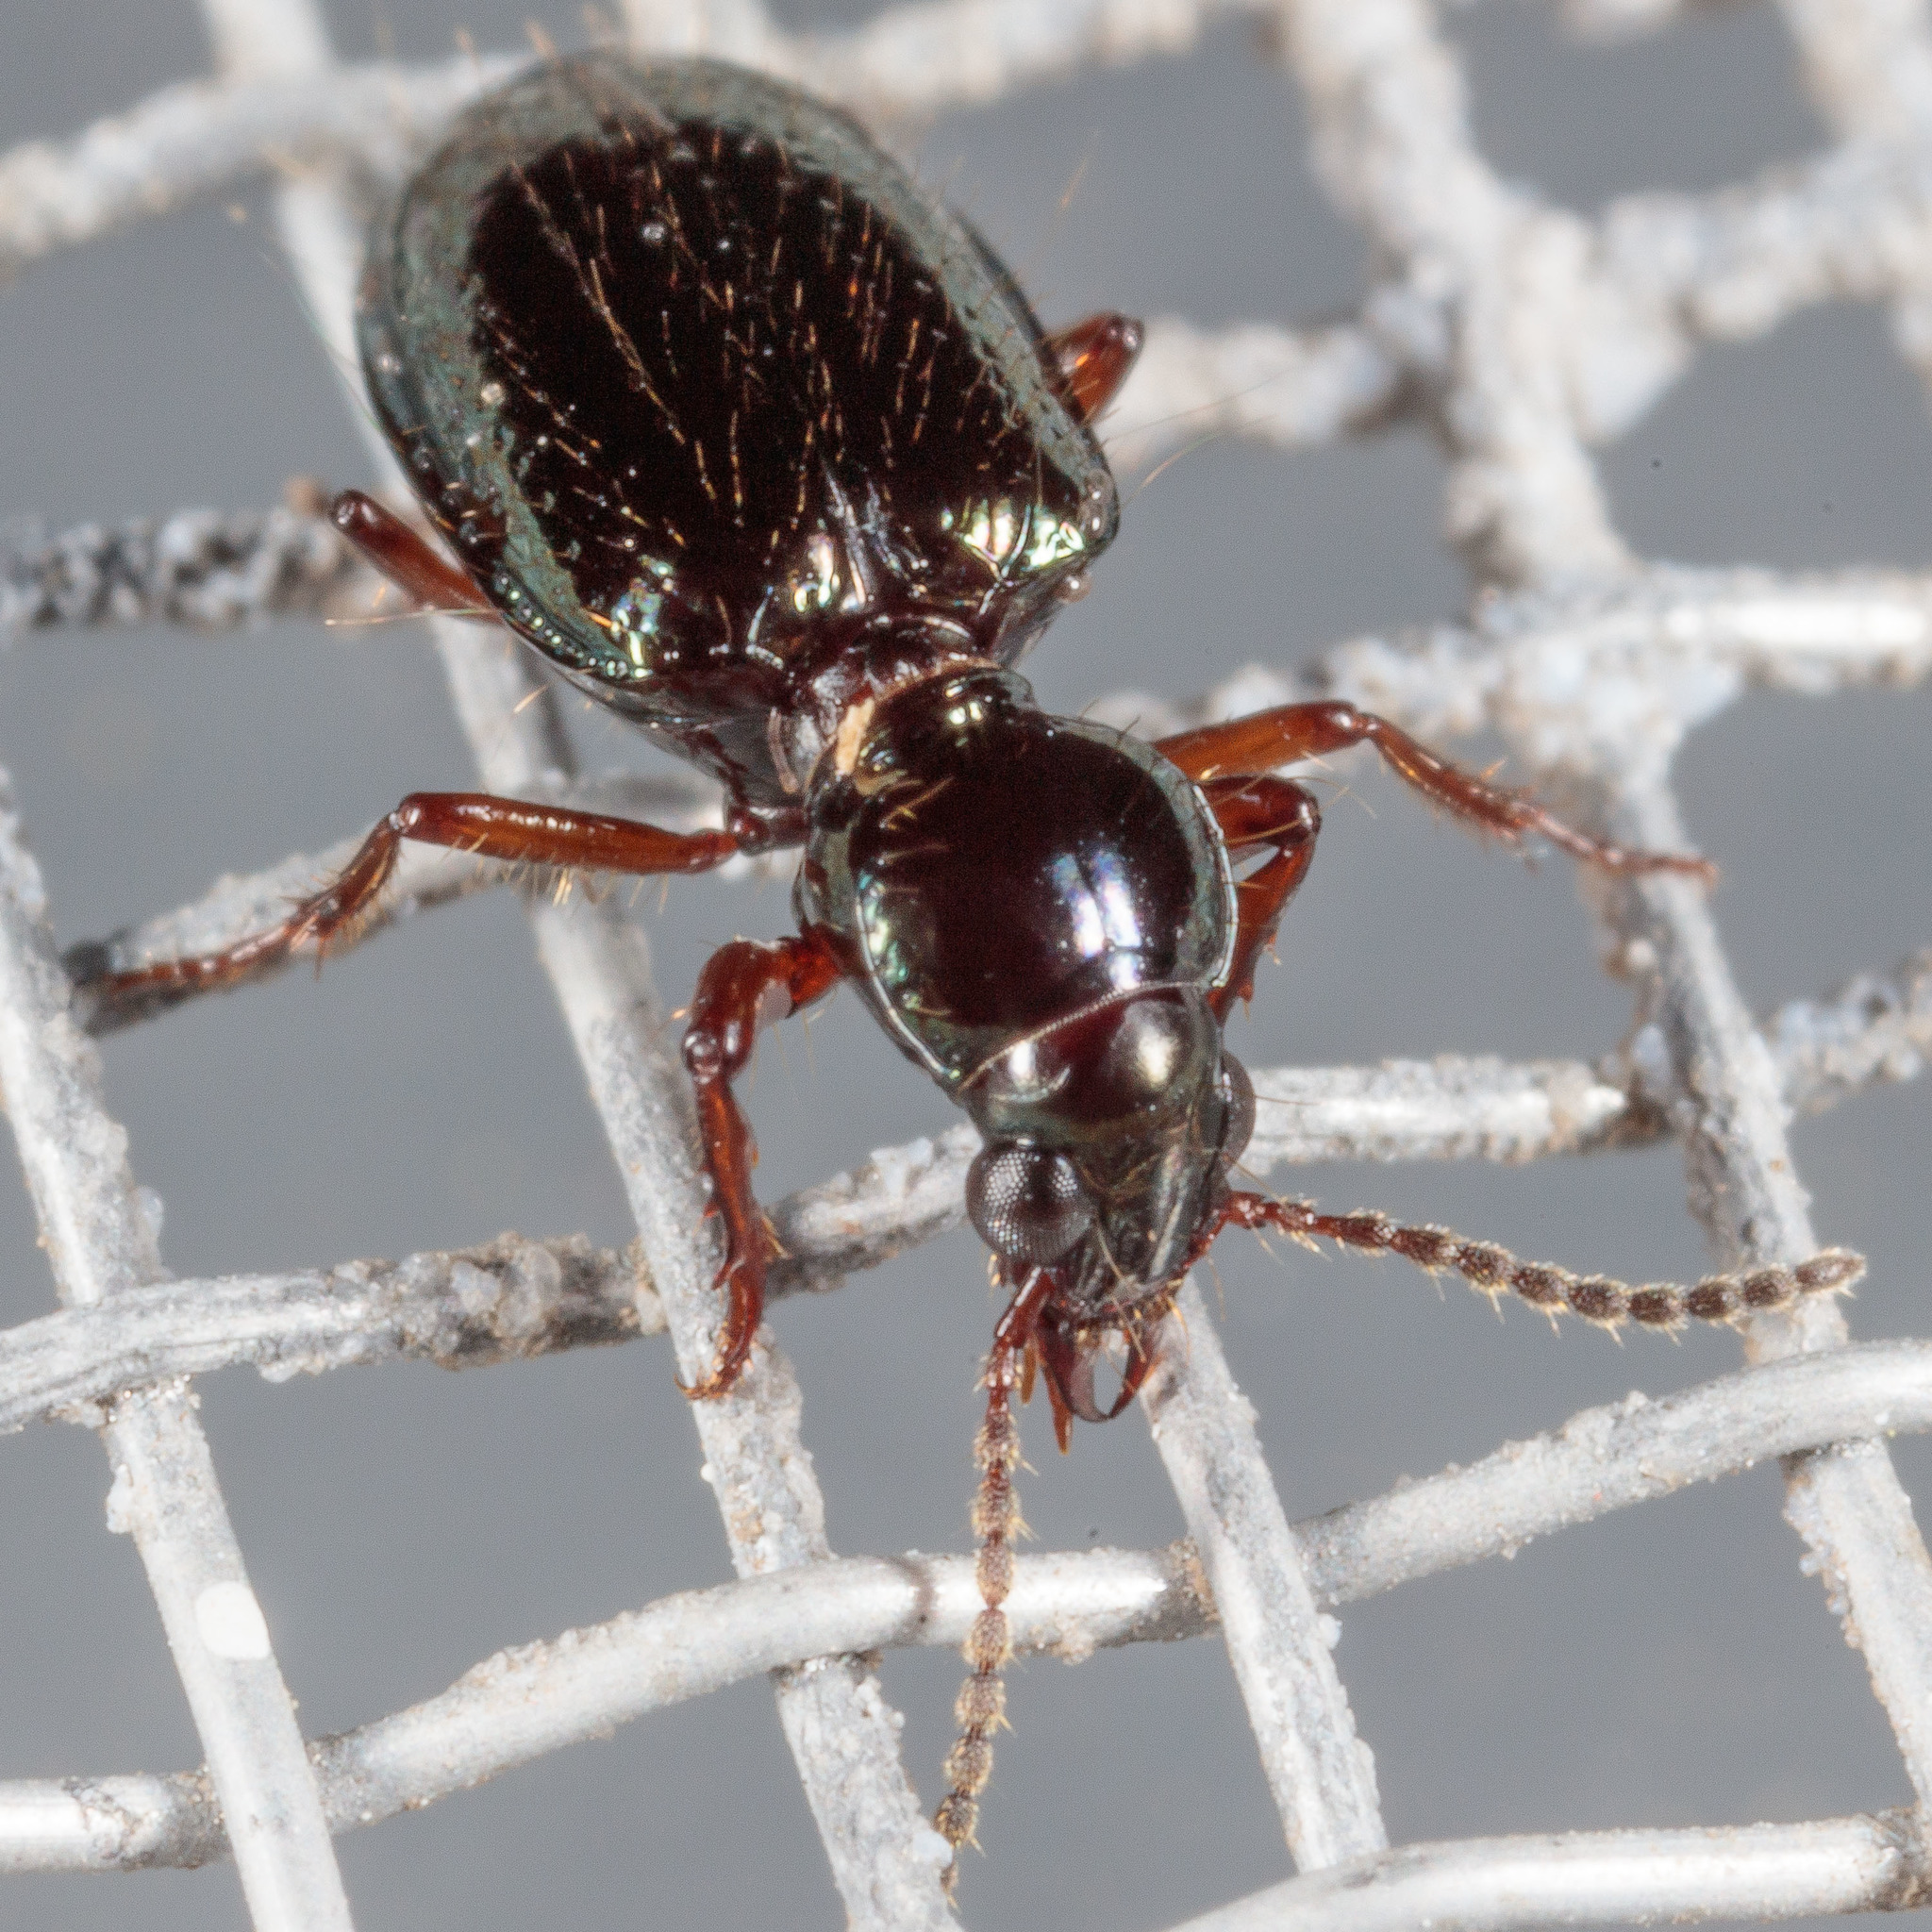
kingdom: Animalia
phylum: Arthropoda
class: Insecta
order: Coleoptera
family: Carabidae
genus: Semiardistomis
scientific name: Semiardistomis viridis
